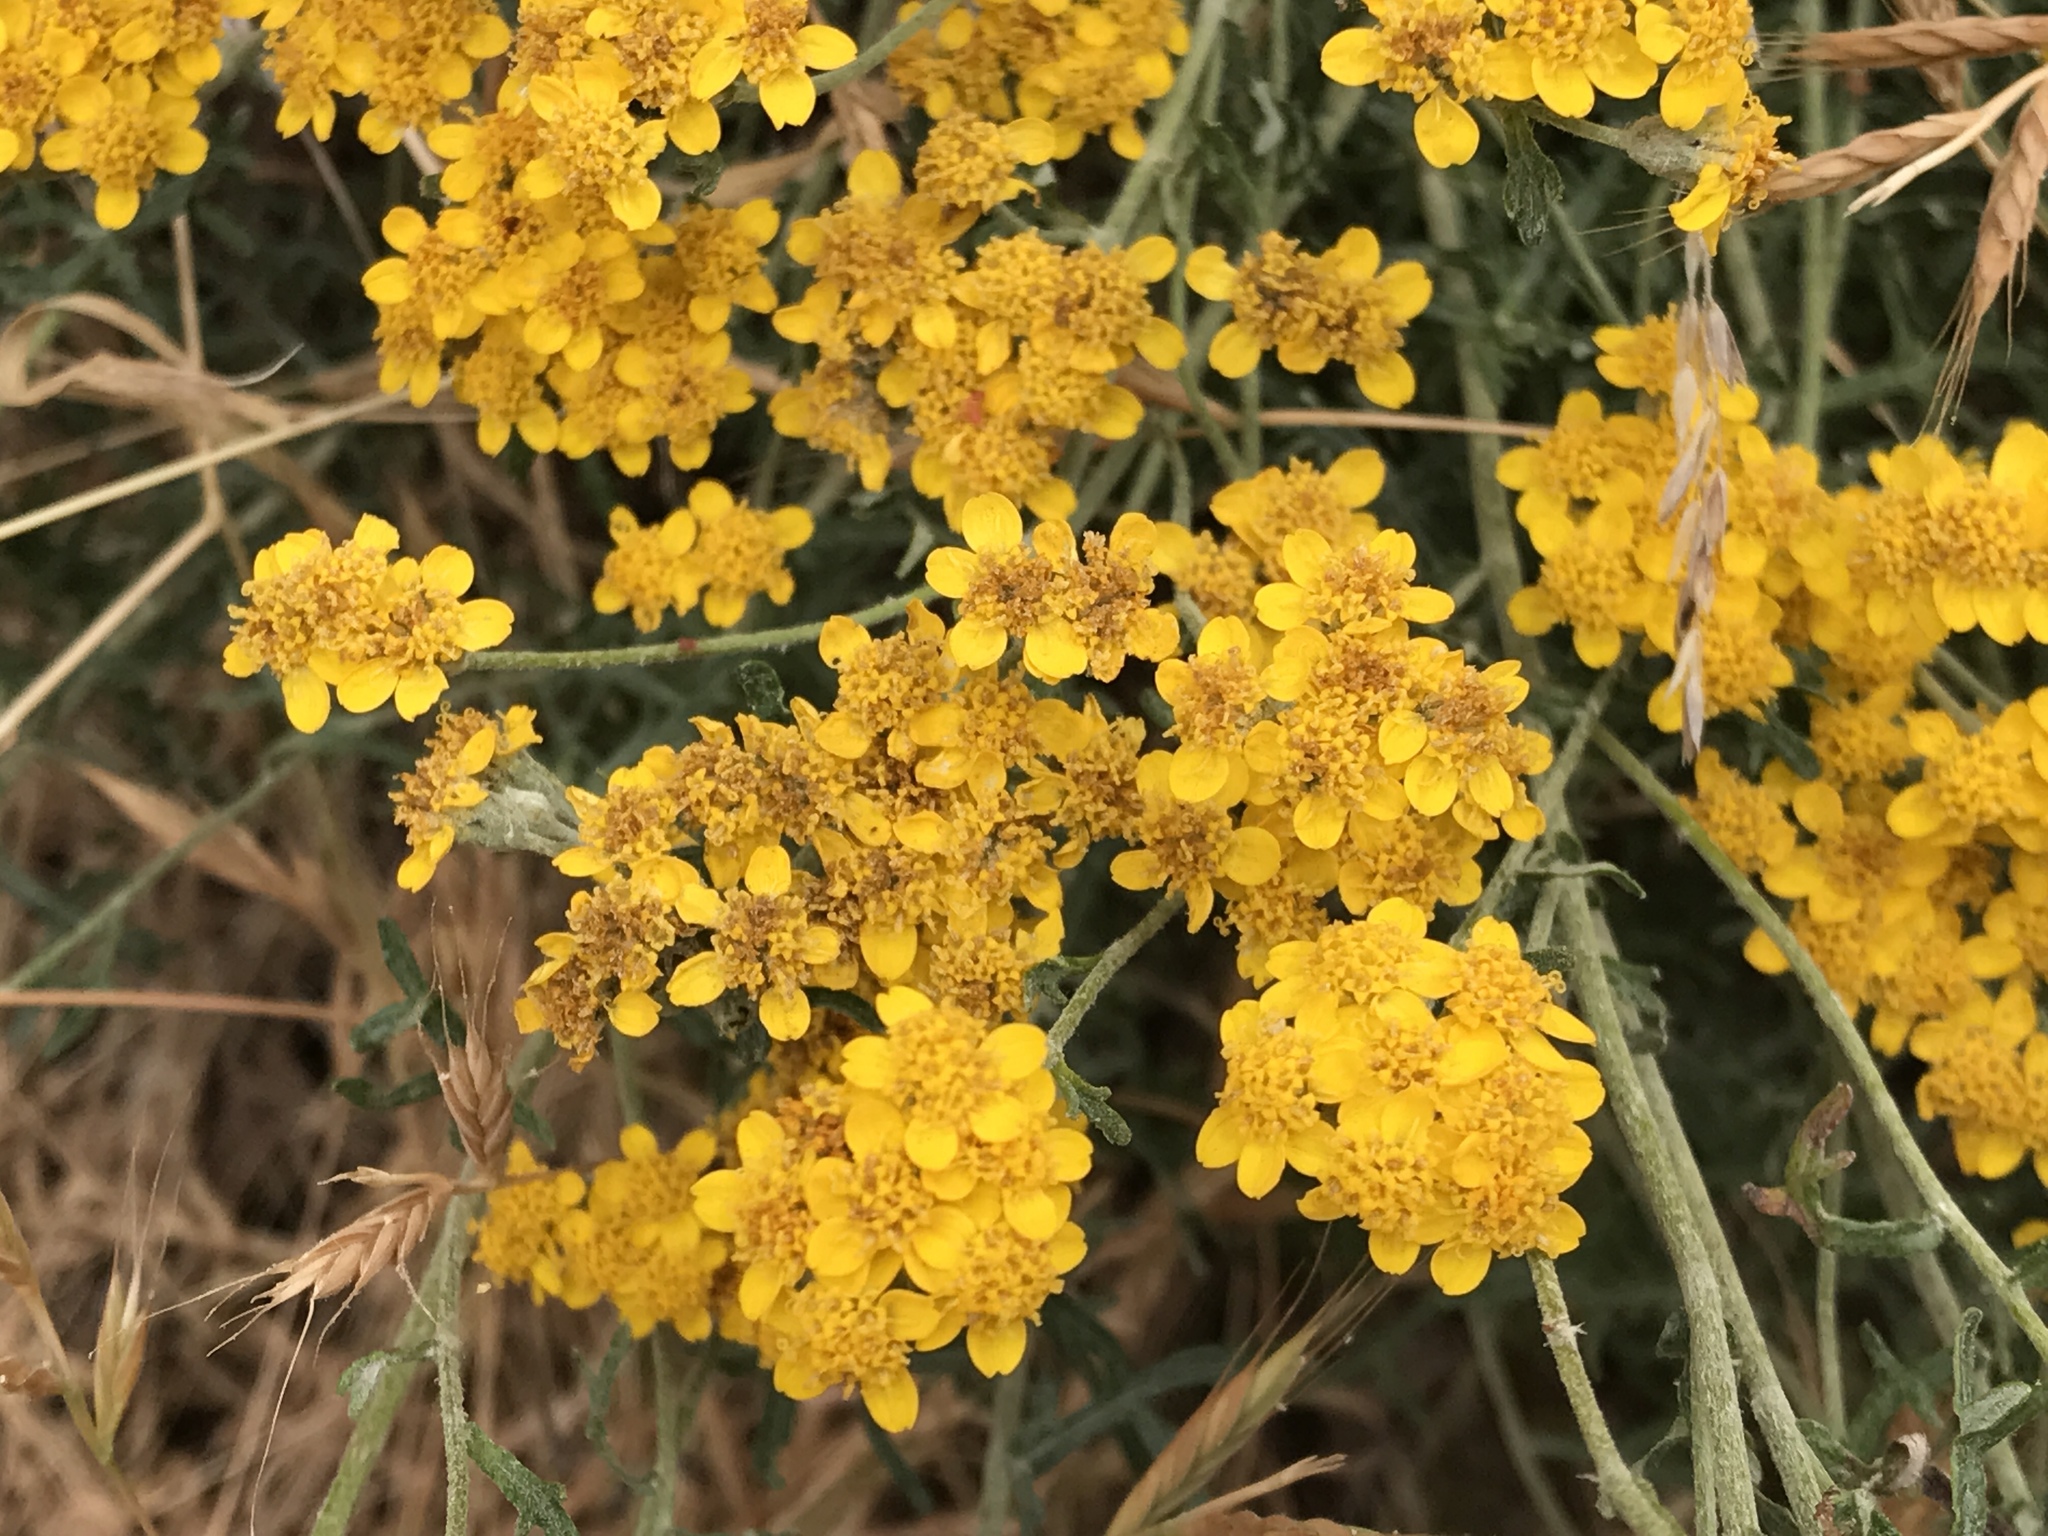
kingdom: Plantae
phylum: Tracheophyta
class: Magnoliopsida
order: Asterales
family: Asteraceae
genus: Eriophyllum
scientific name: Eriophyllum confertiflorum
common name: Golden-yarrow
